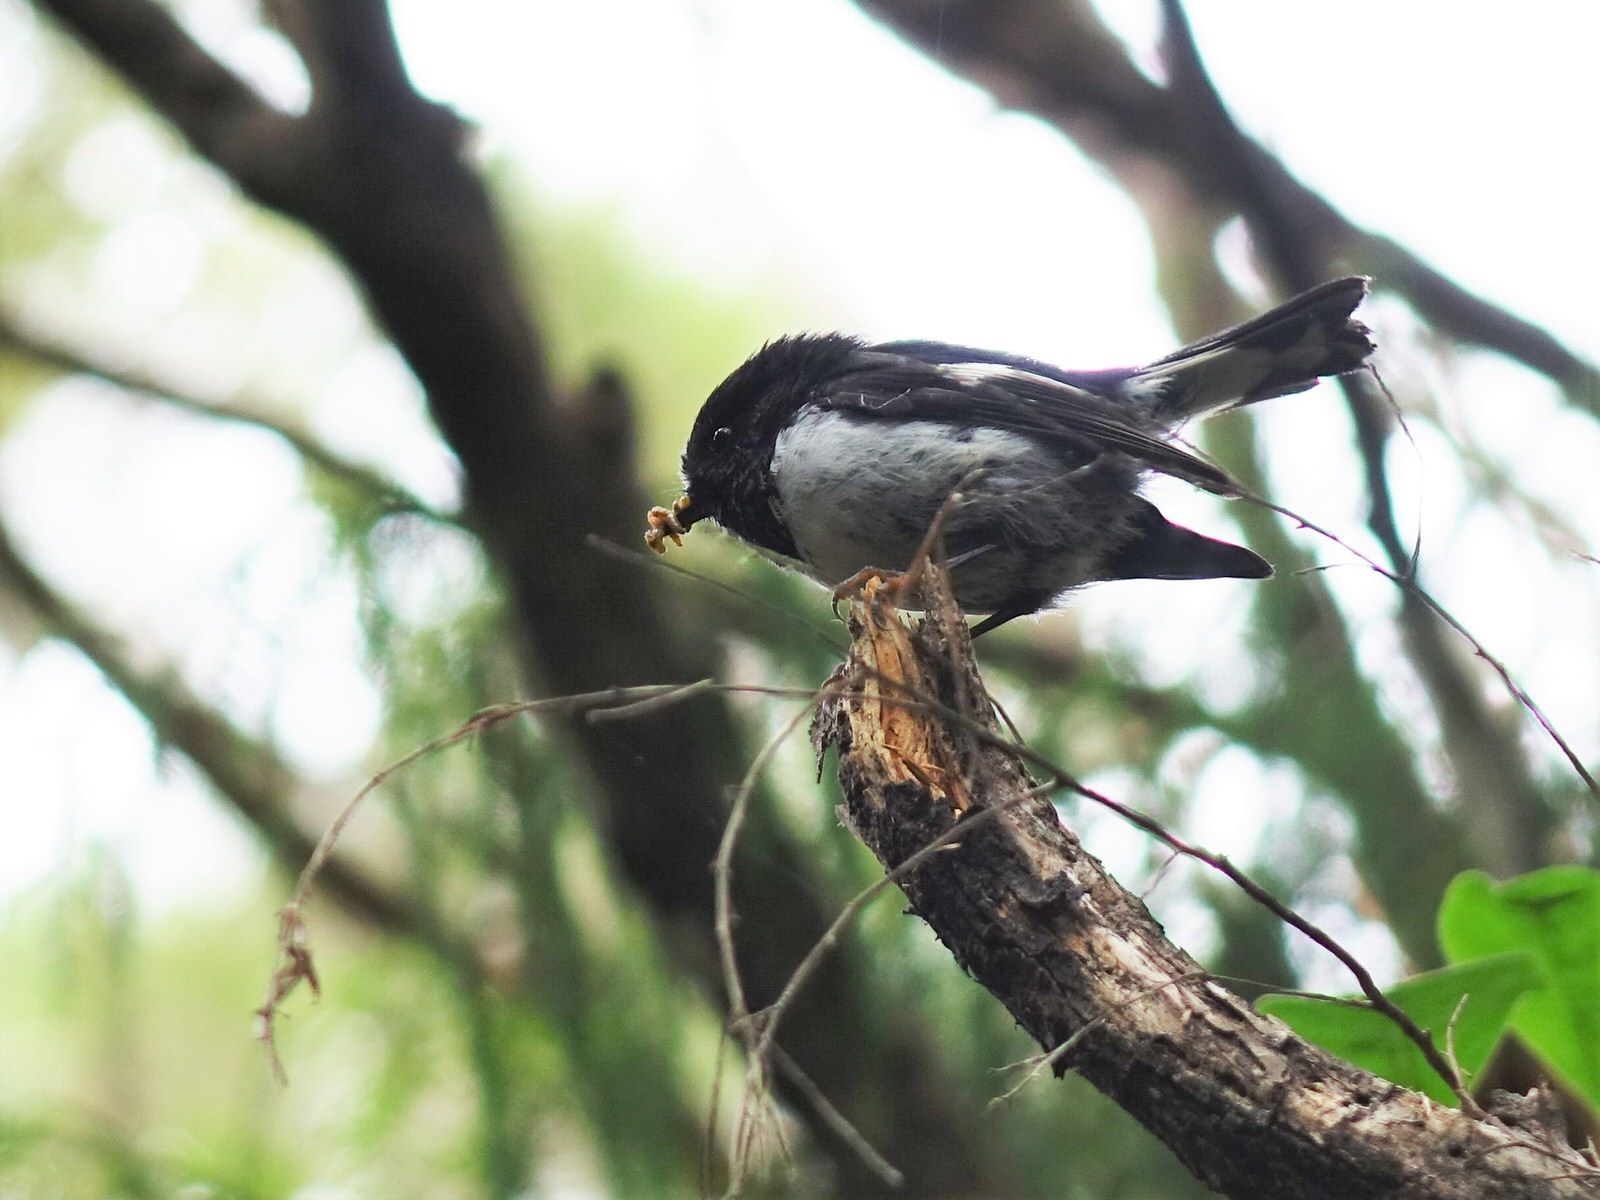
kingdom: Animalia
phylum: Chordata
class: Aves
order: Passeriformes
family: Petroicidae
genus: Petroica
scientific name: Petroica macrocephala
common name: Tomtit
